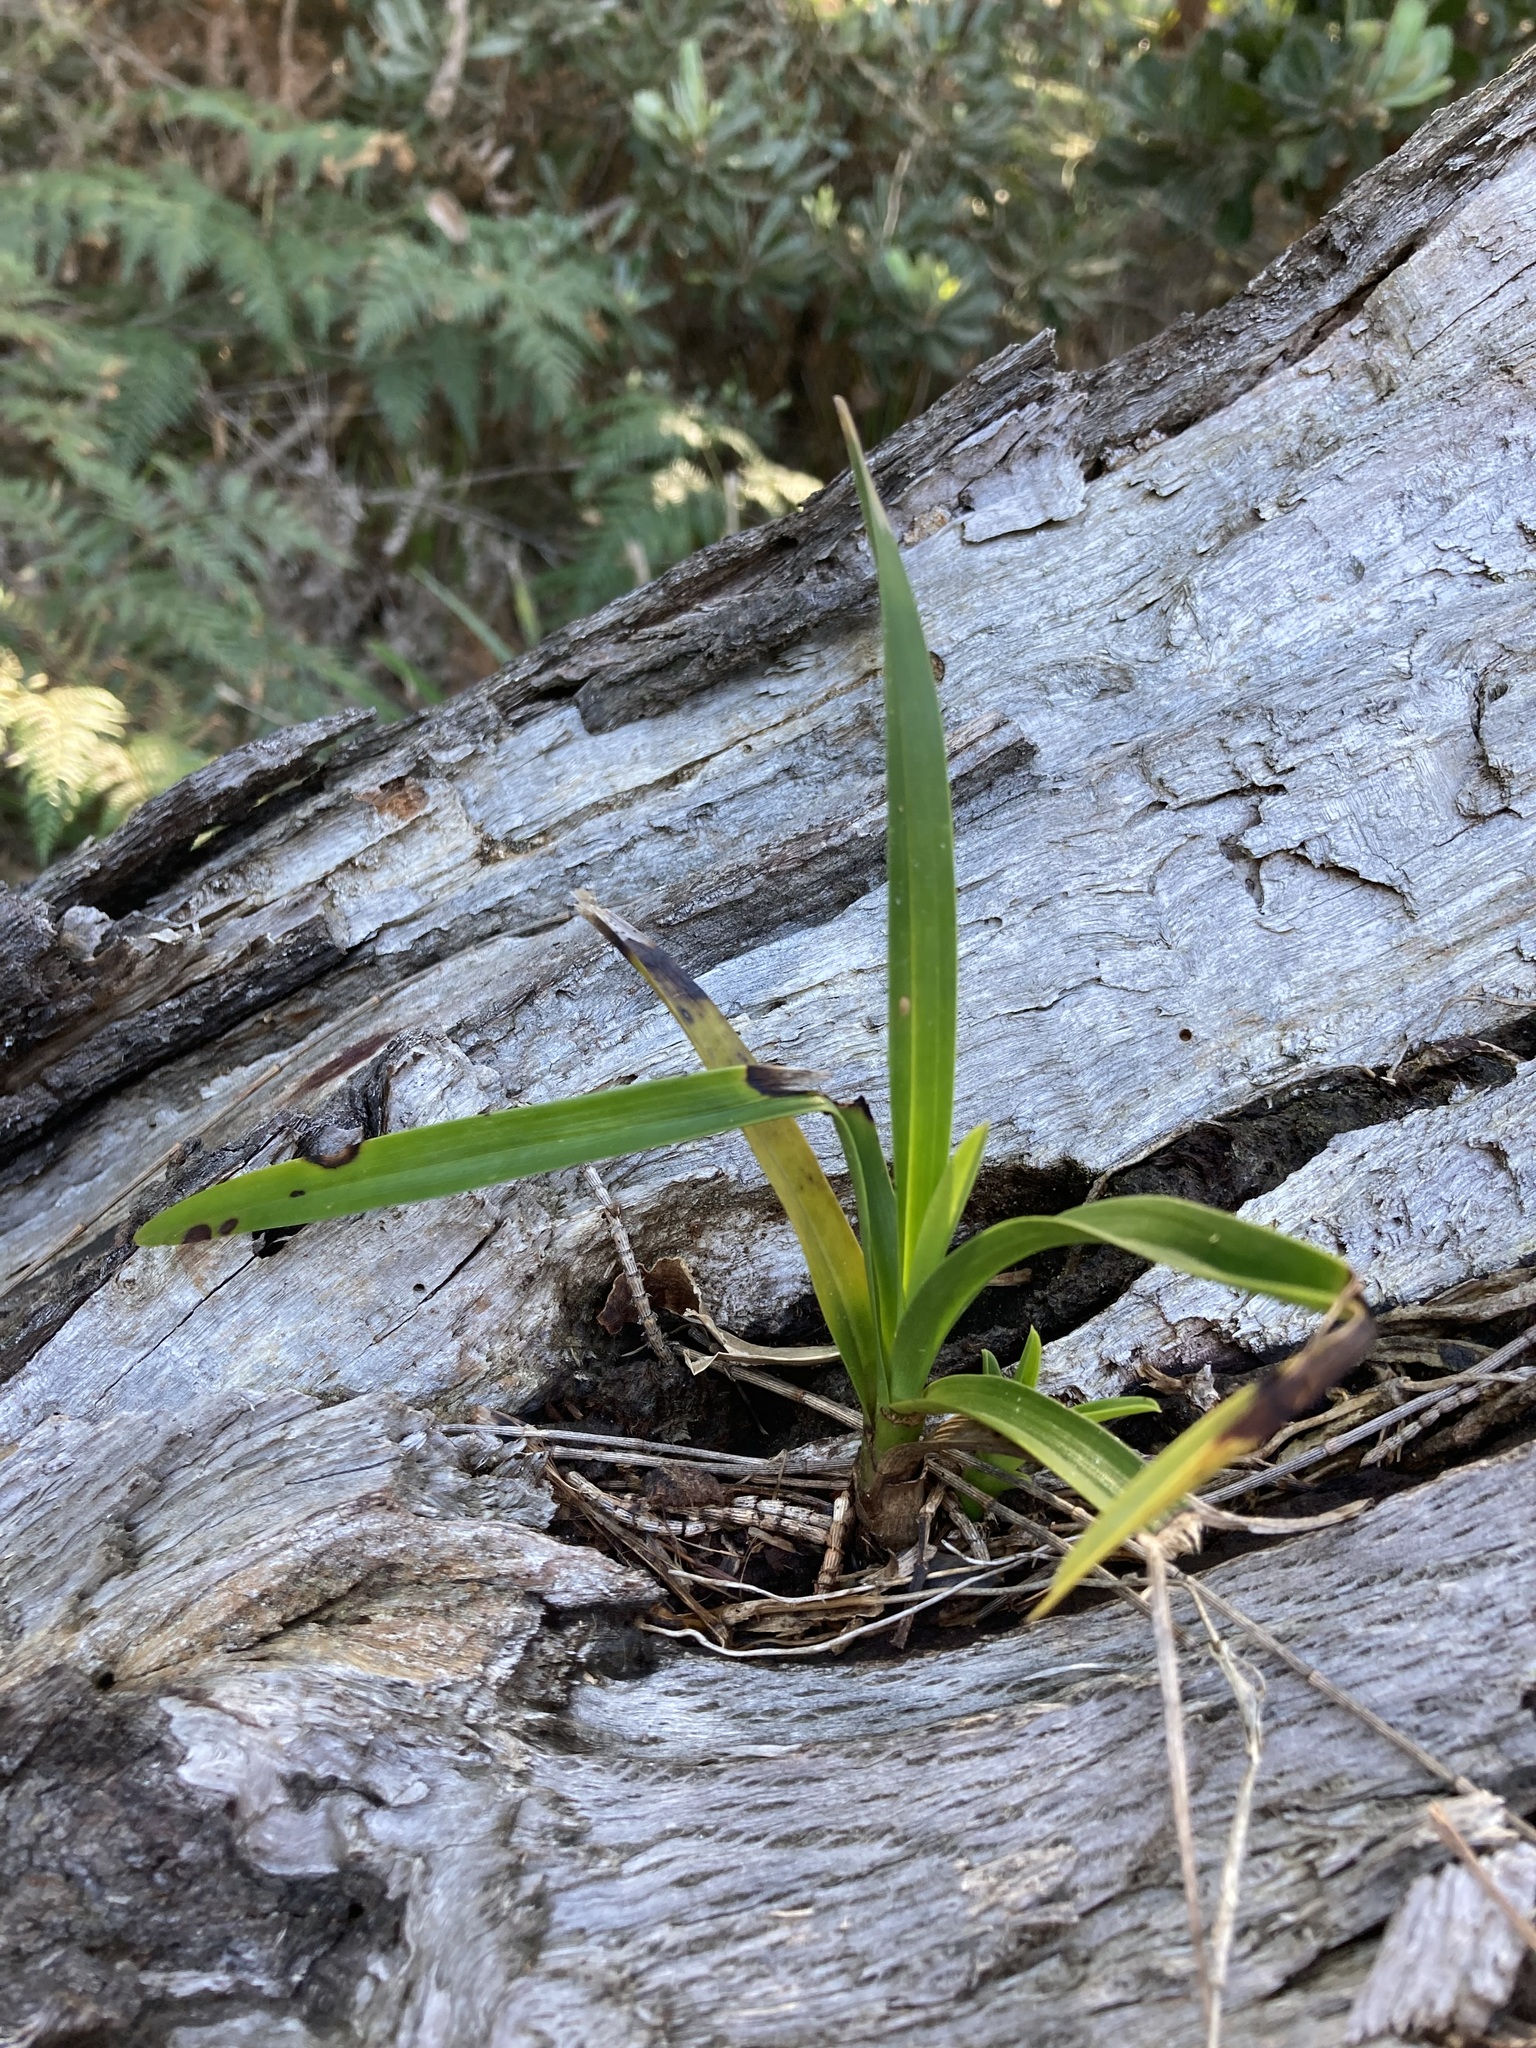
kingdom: Plantae
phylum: Tracheophyta
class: Liliopsida
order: Asparagales
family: Orchidaceae
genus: Cymbidium
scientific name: Cymbidium suave
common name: Snake orchid
